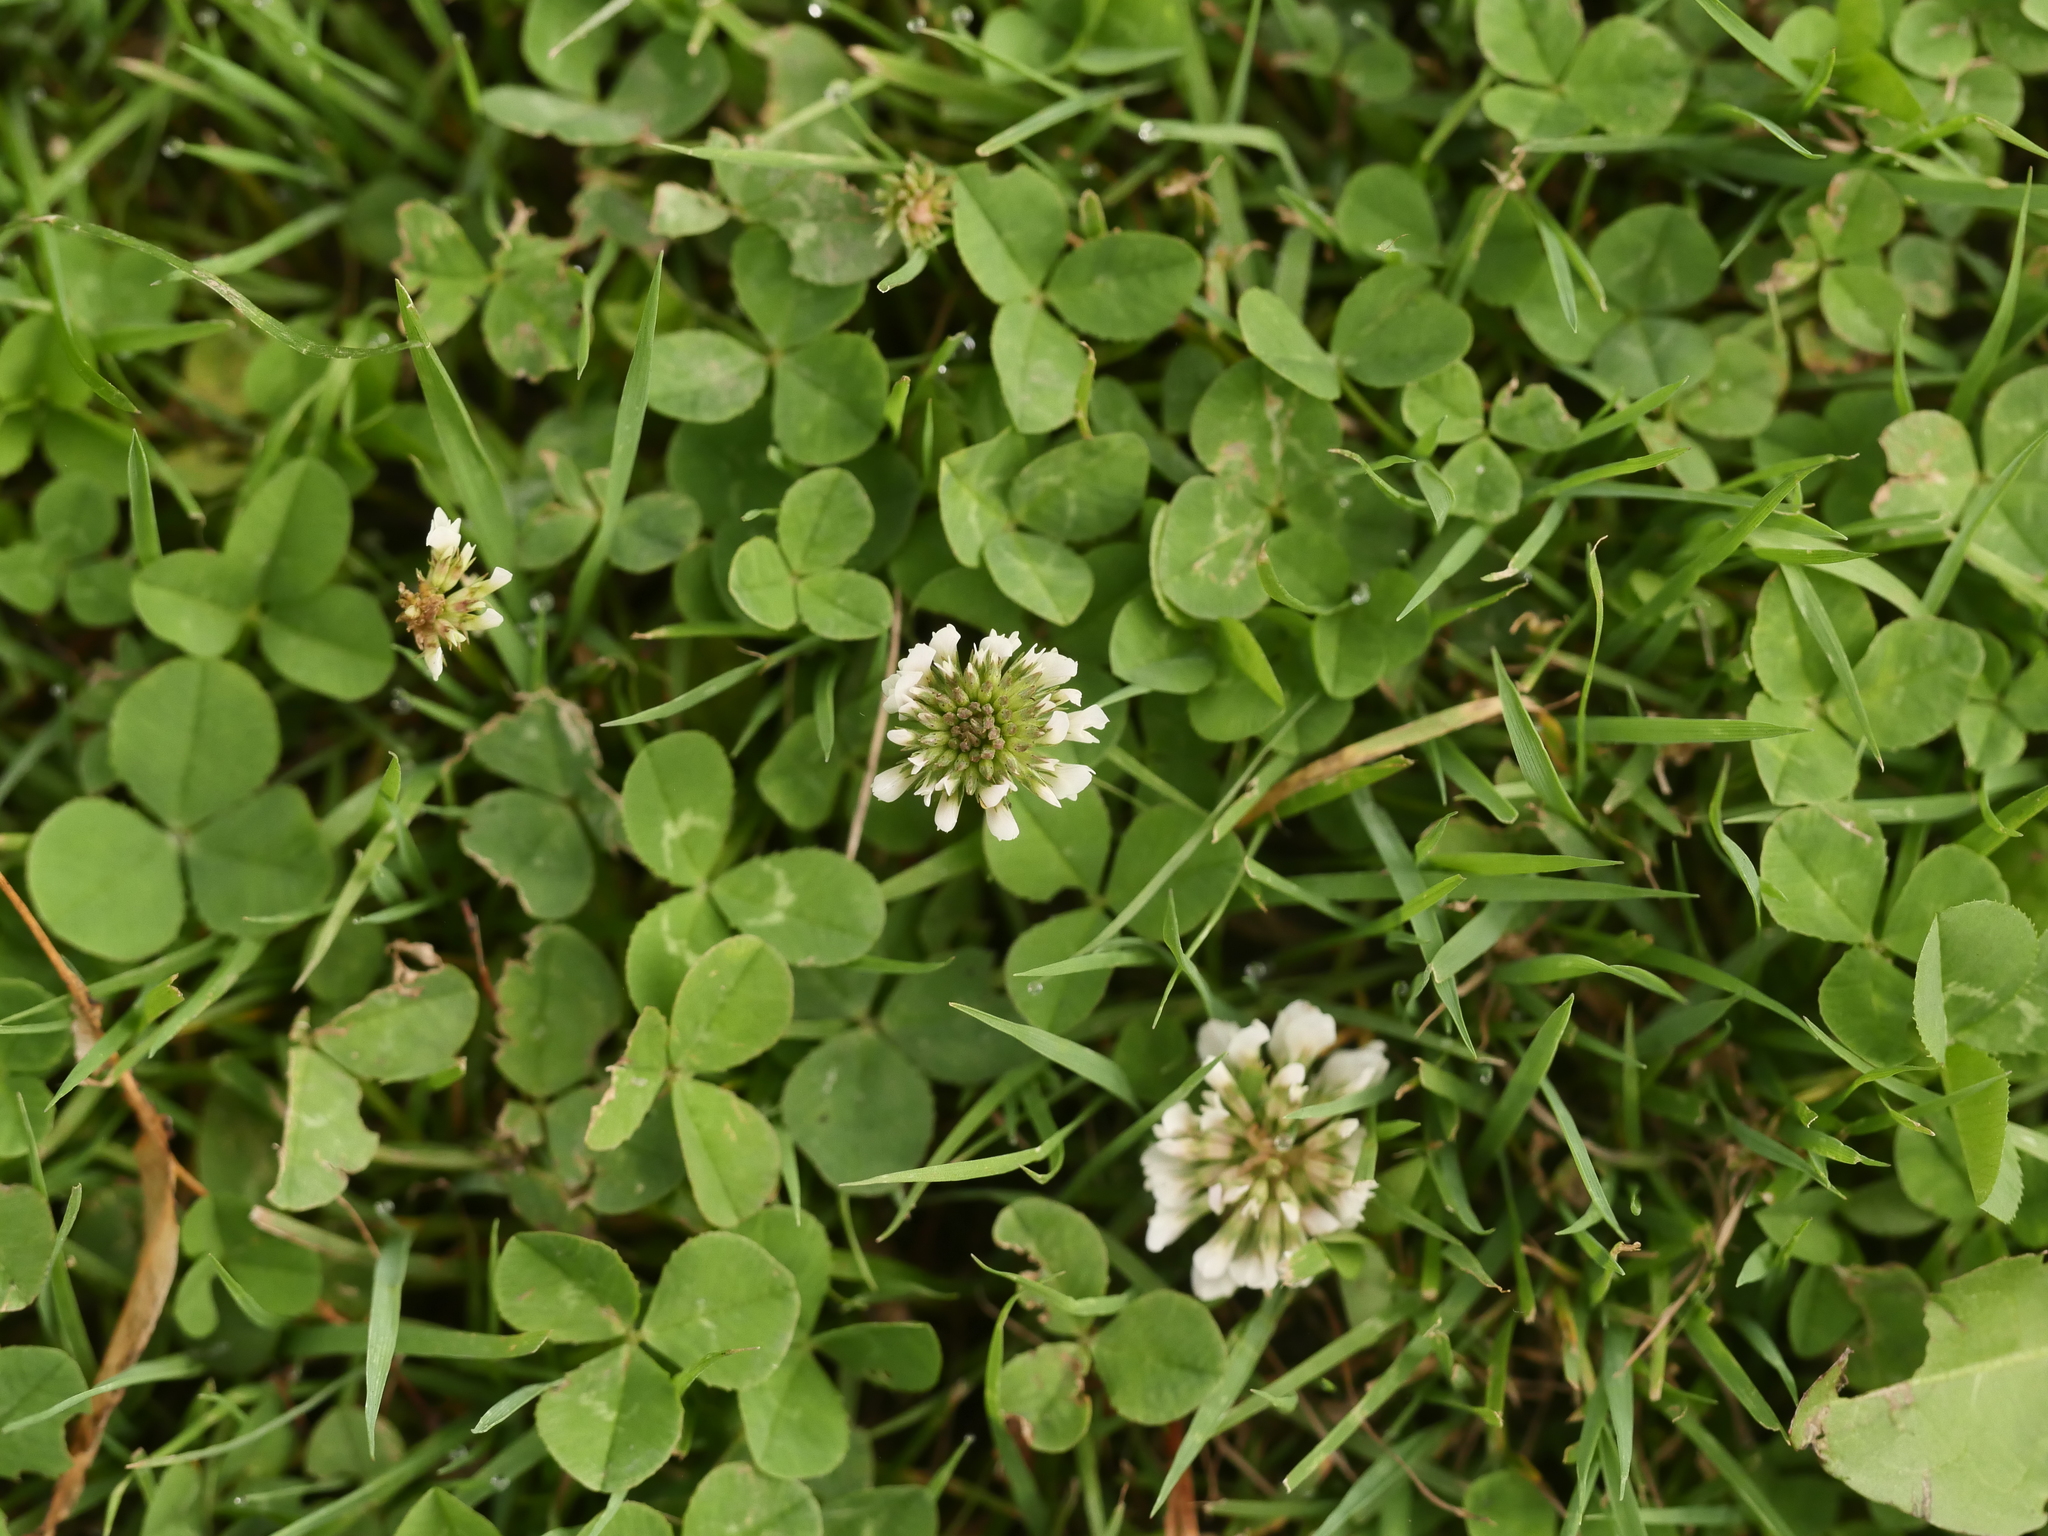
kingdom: Plantae
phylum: Tracheophyta
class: Magnoliopsida
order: Fabales
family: Fabaceae
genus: Trifolium
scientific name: Trifolium repens
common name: White clover
